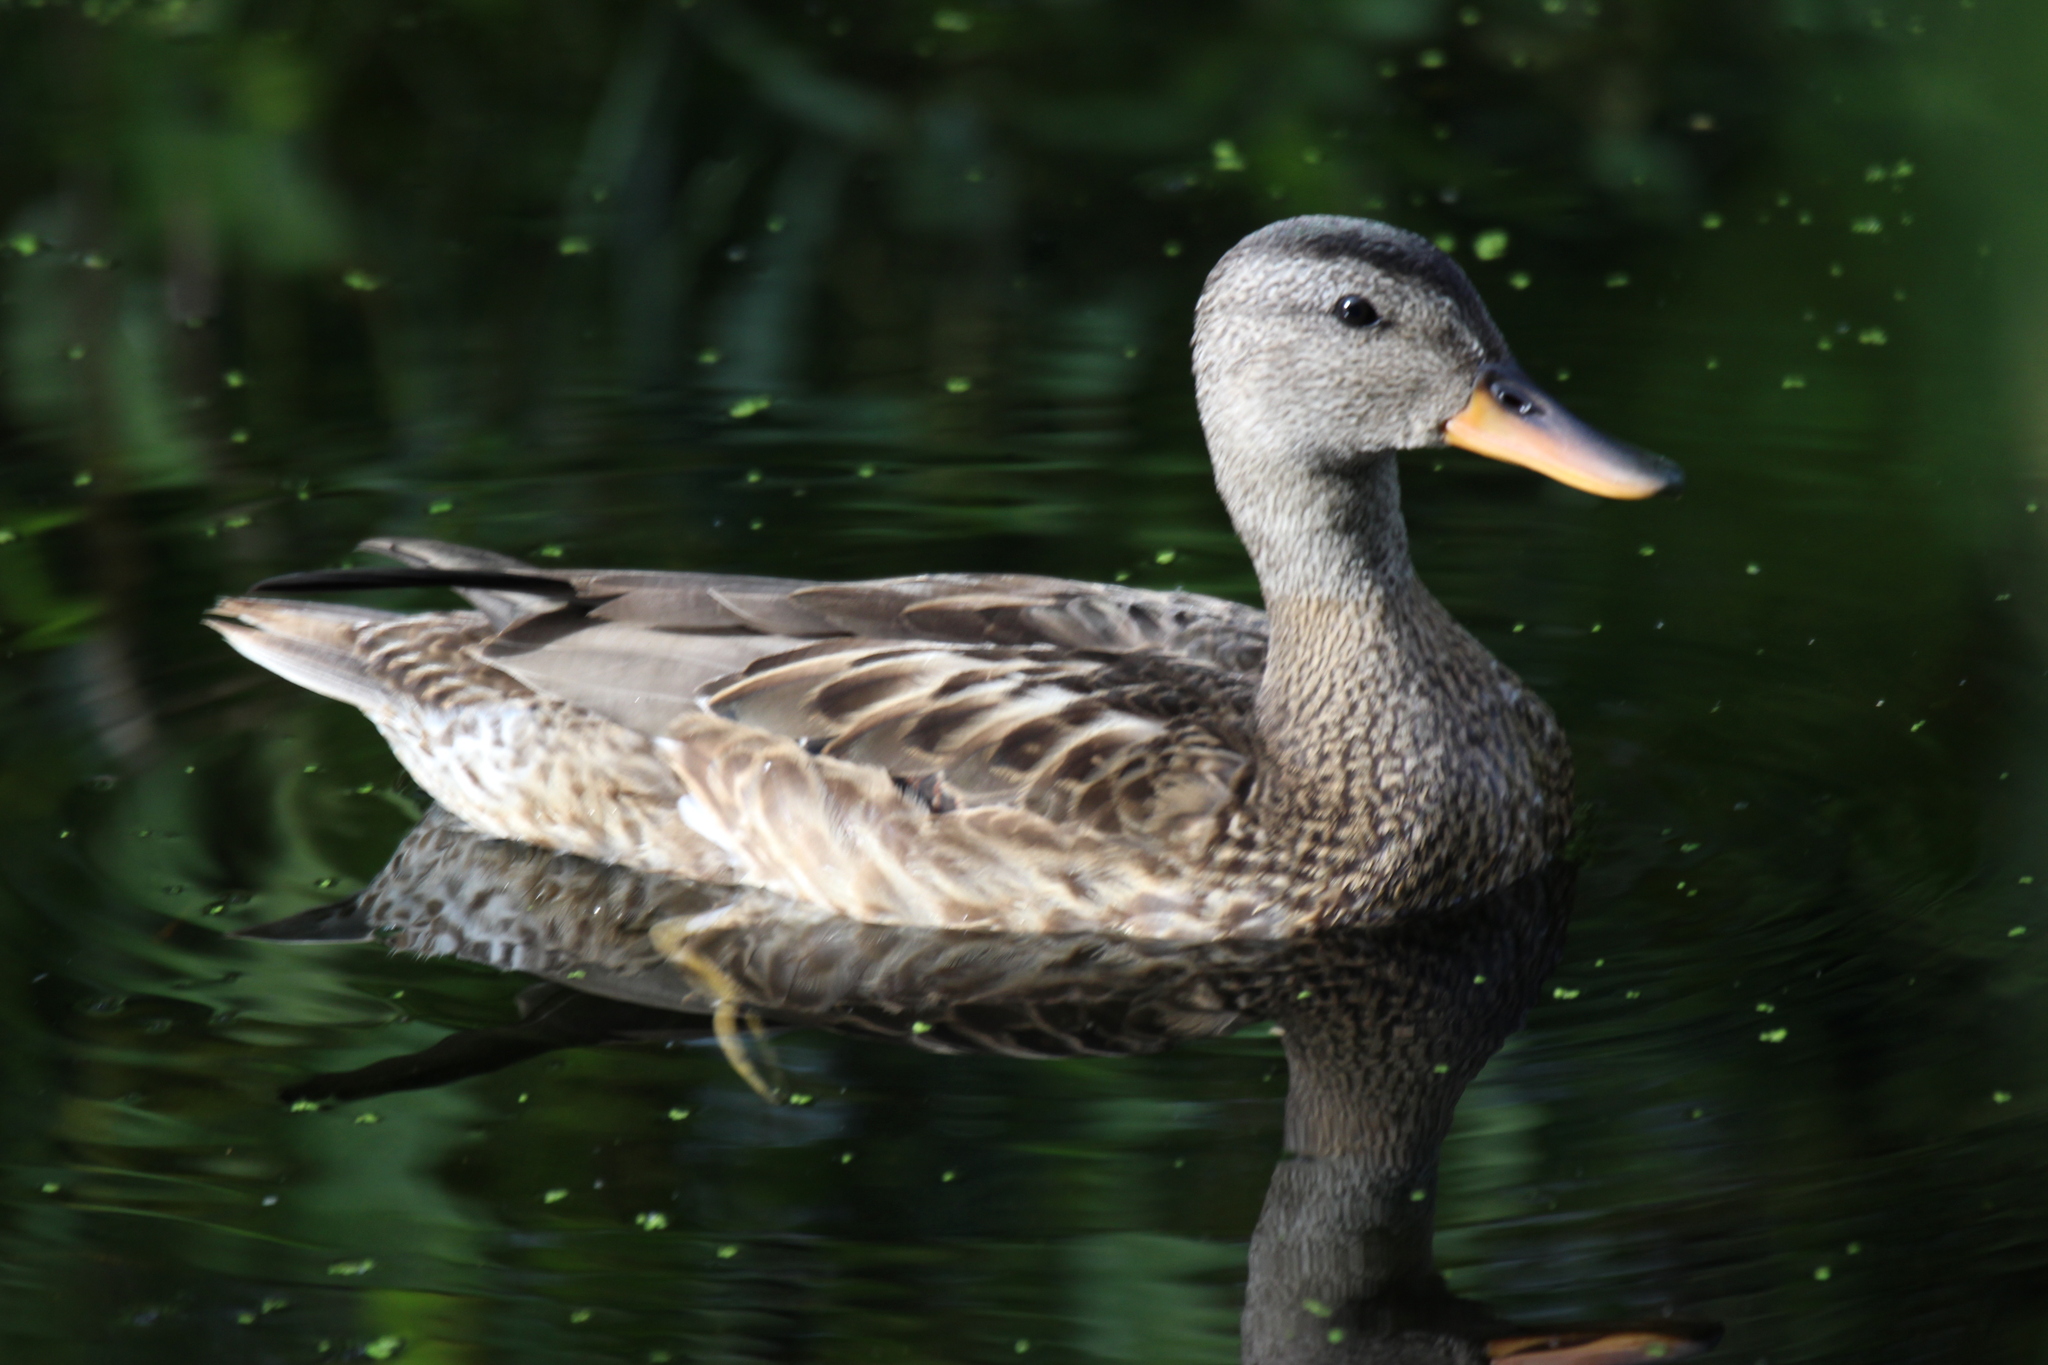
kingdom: Animalia
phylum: Chordata
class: Aves
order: Anseriformes
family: Anatidae
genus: Mareca
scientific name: Mareca strepera
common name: Gadwall
